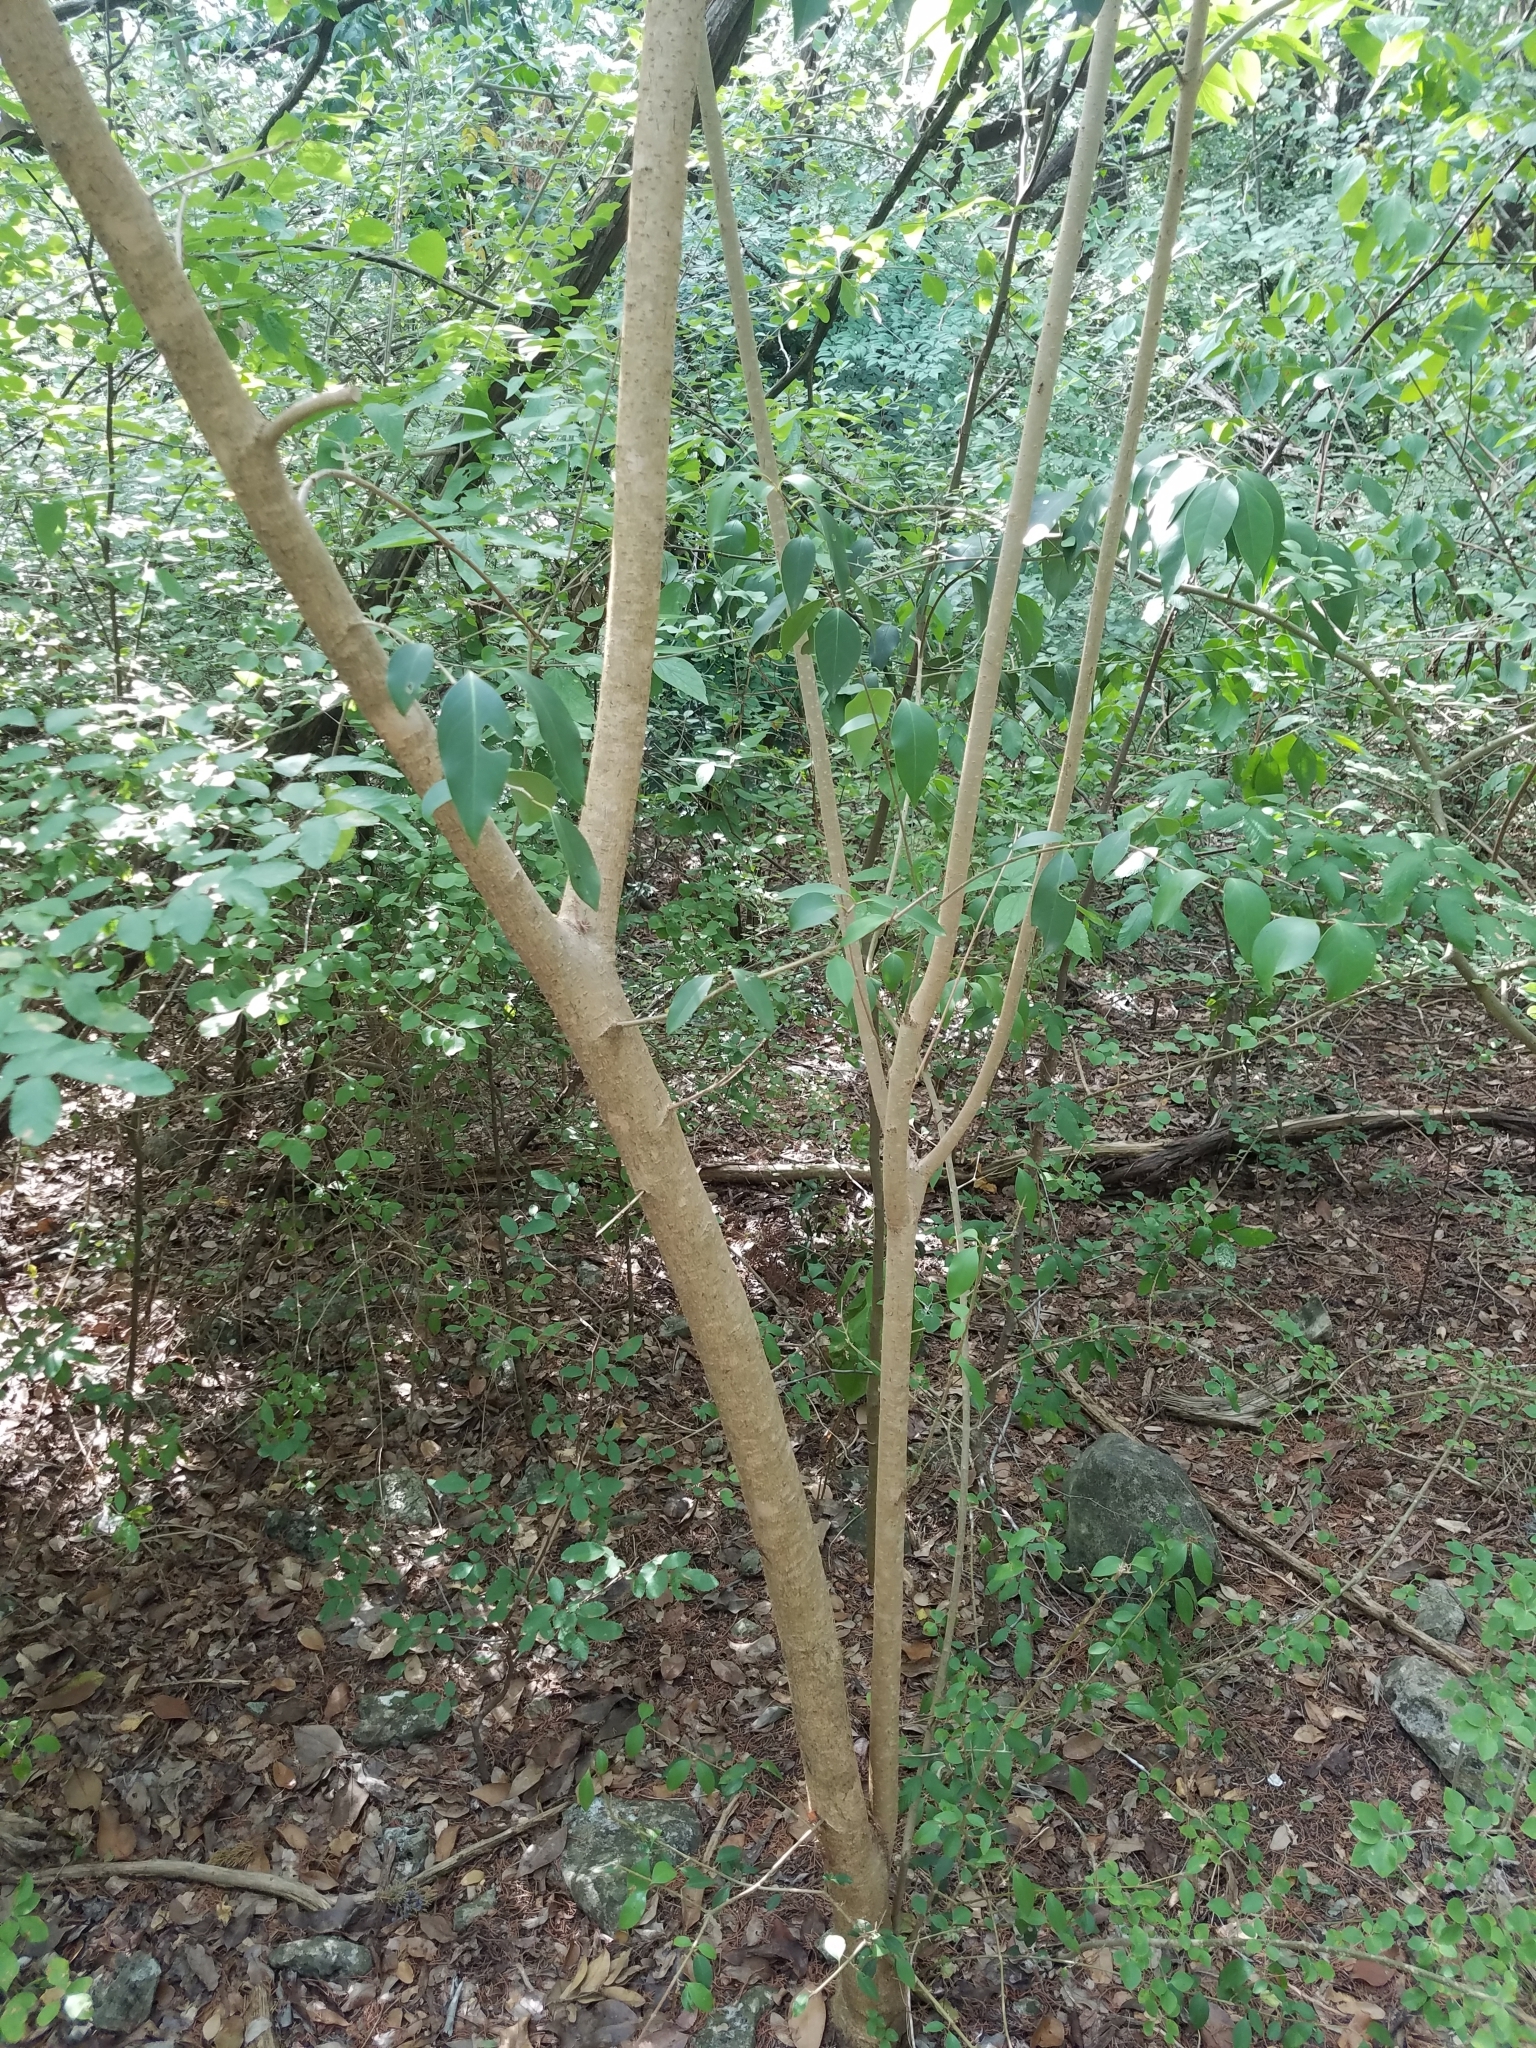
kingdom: Plantae
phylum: Tracheophyta
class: Magnoliopsida
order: Lamiales
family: Oleaceae
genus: Ligustrum
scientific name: Ligustrum lucidum
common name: Glossy privet
